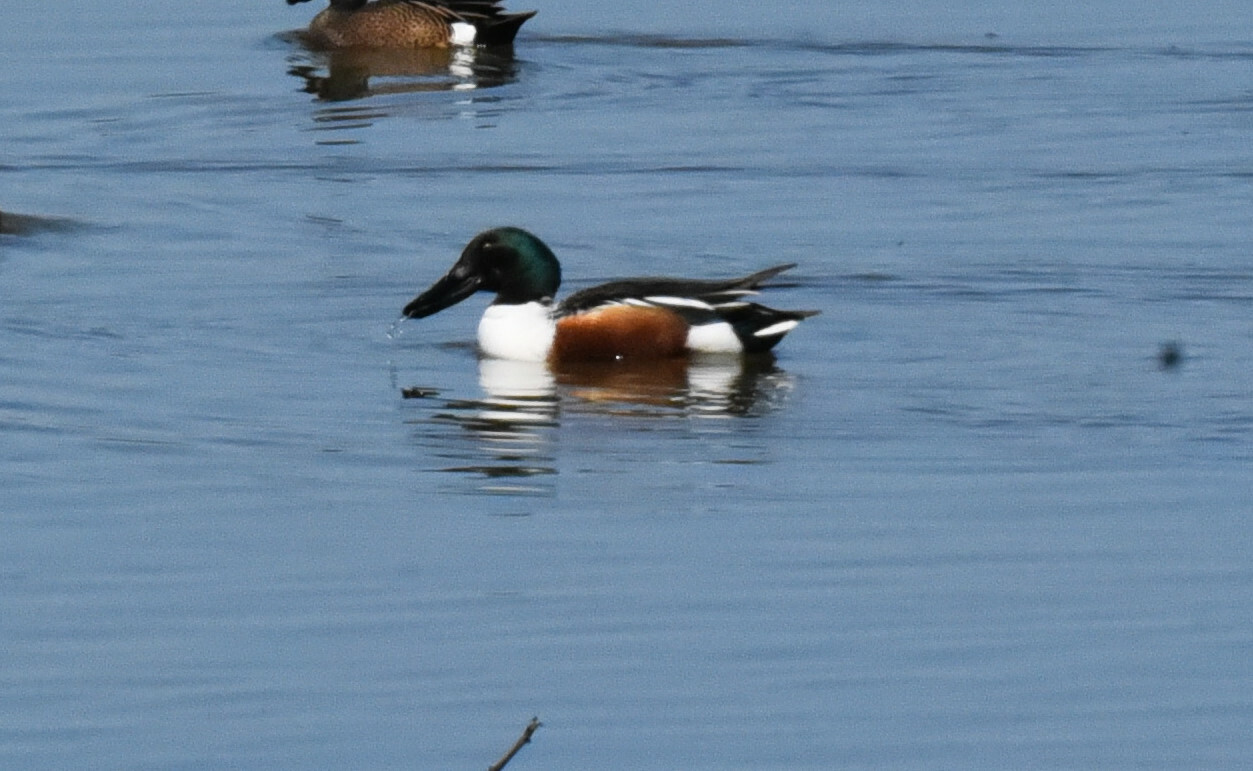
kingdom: Animalia
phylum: Chordata
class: Aves
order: Anseriformes
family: Anatidae
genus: Spatula
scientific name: Spatula clypeata
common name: Northern shoveler
